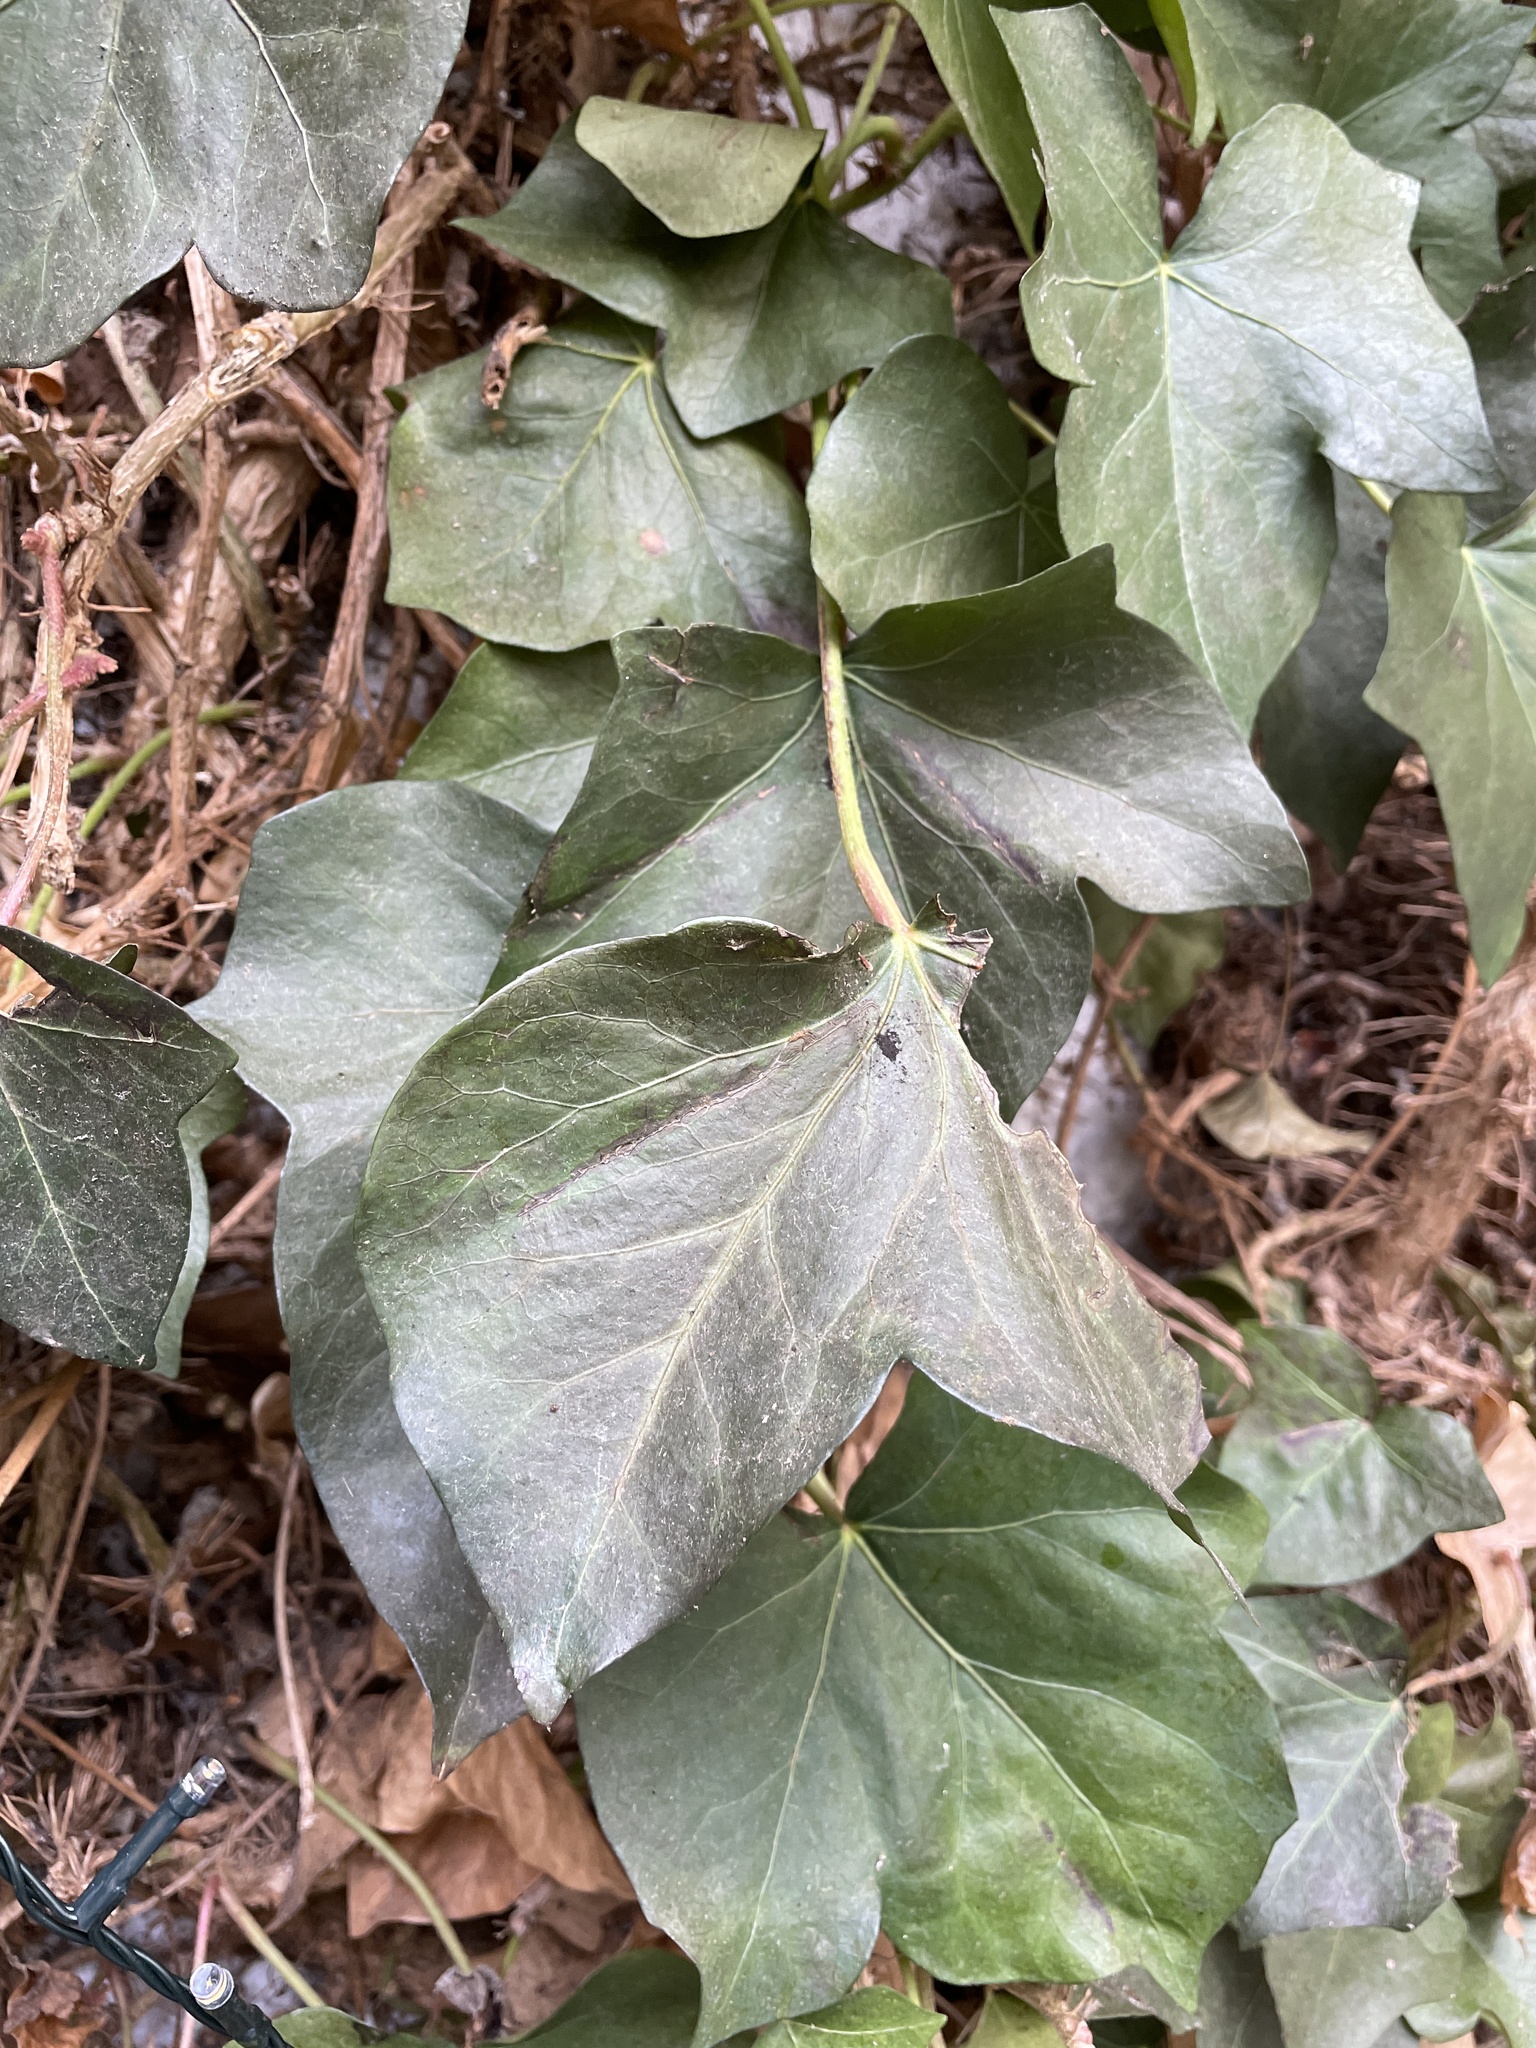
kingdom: Plantae
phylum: Tracheophyta
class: Magnoliopsida
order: Apiales
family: Araliaceae
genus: Hedera
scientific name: Hedera helix
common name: Ivy
